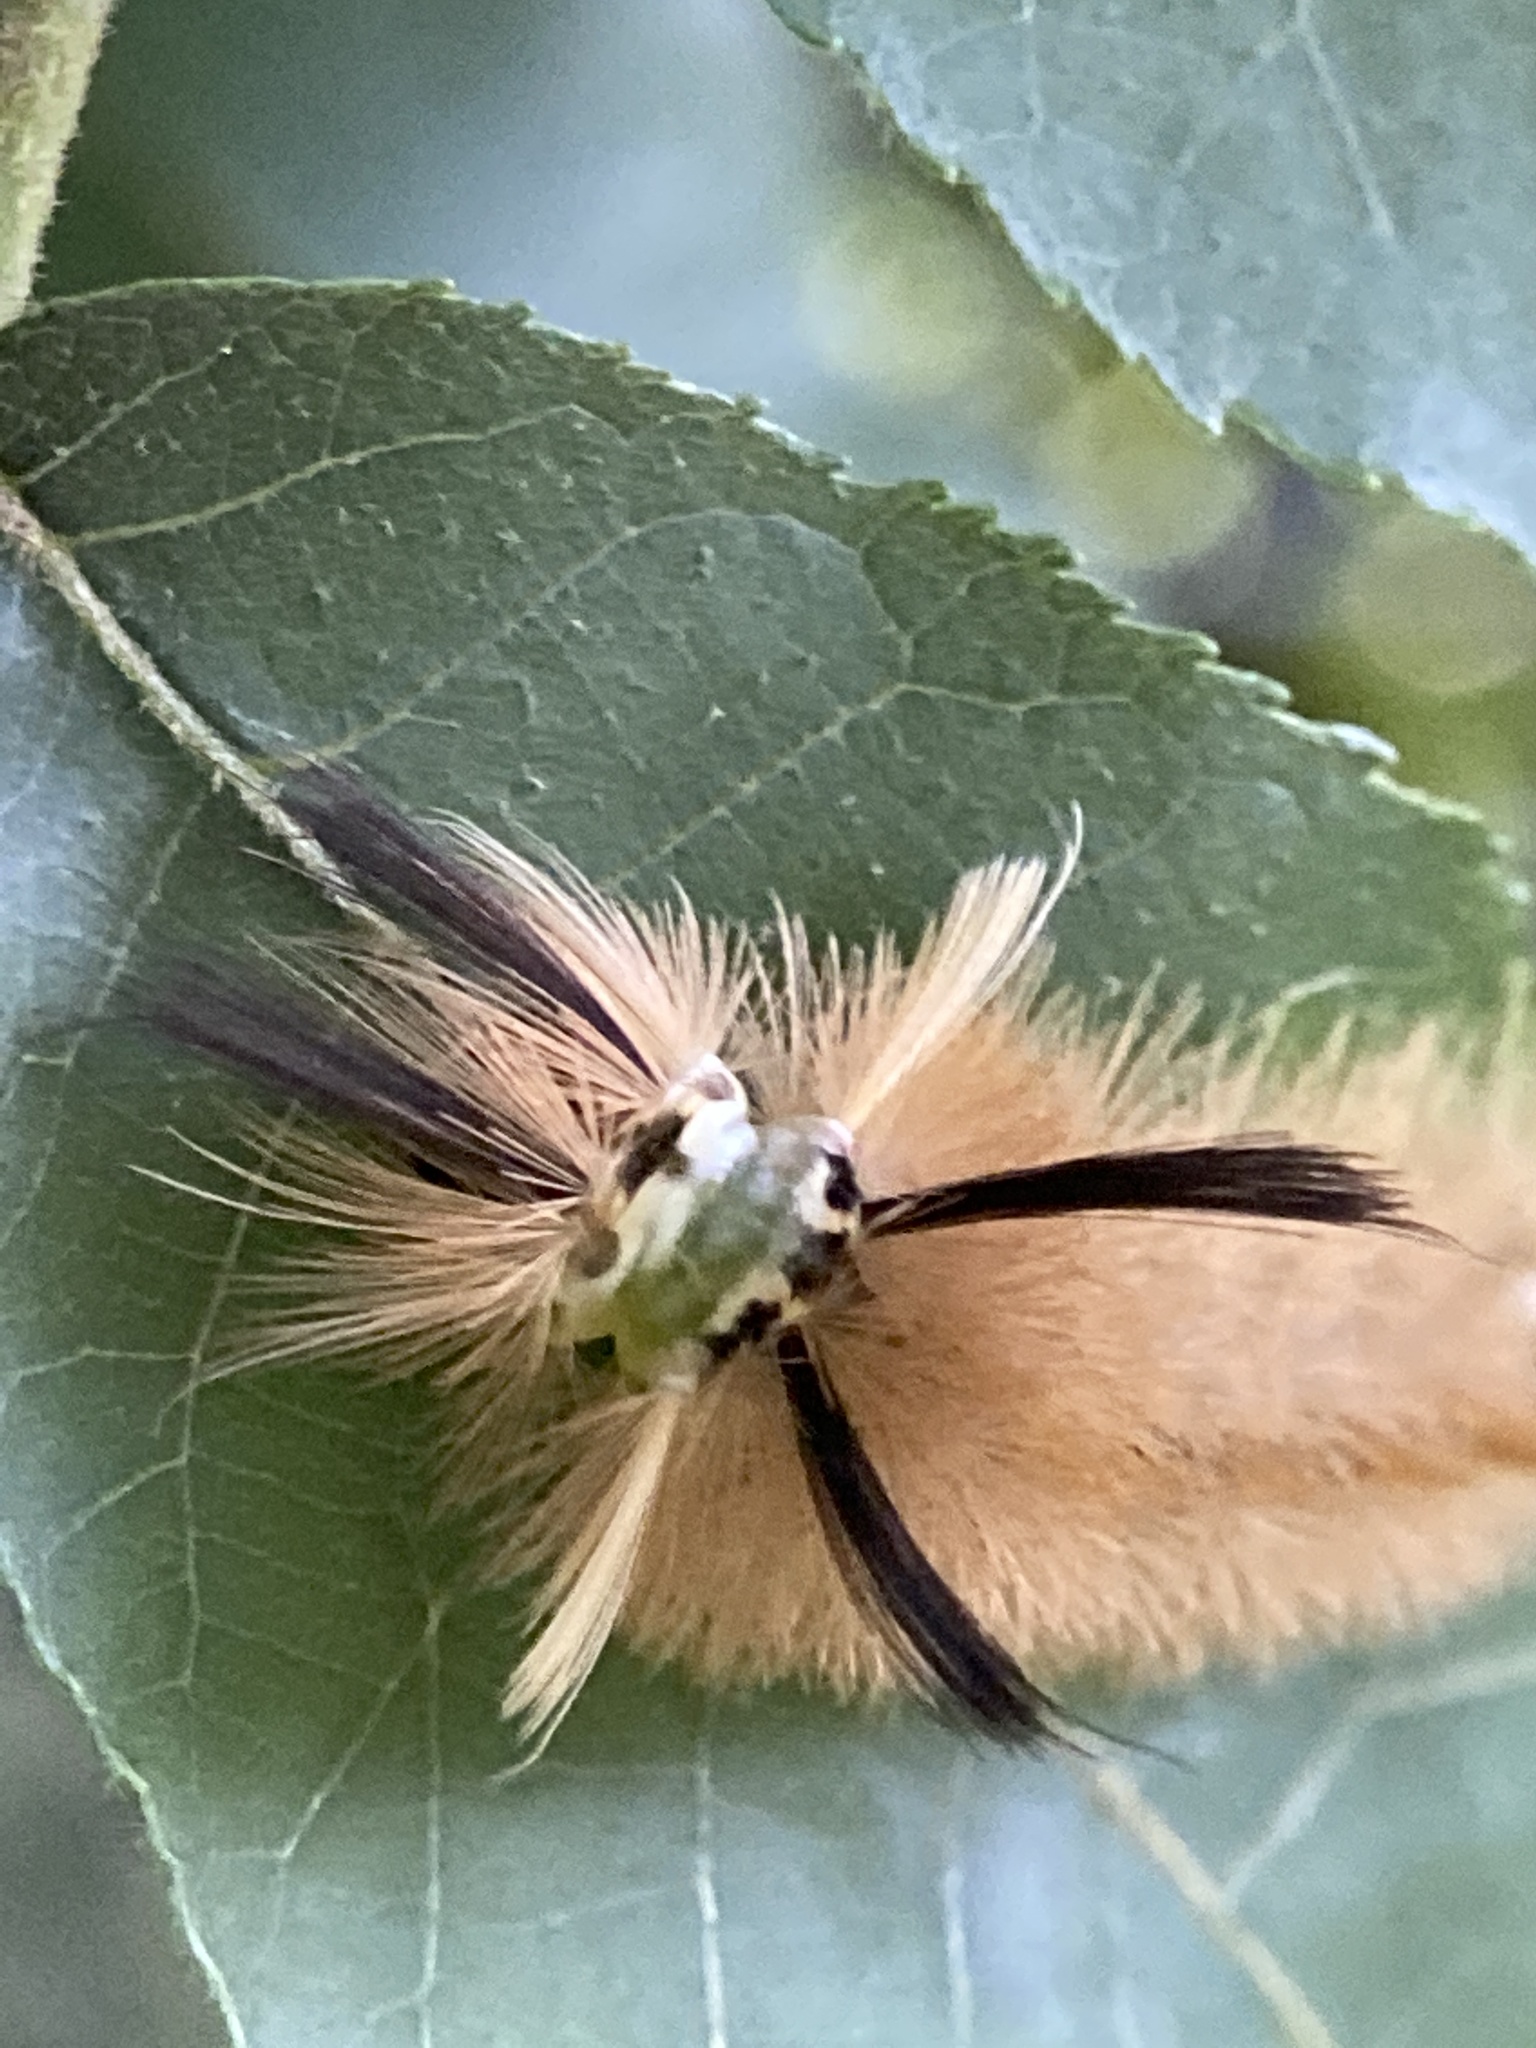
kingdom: Animalia
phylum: Arthropoda
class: Insecta
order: Lepidoptera
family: Erebidae
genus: Halysidota
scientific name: Halysidota tessellaris
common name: Banded tussock moth
